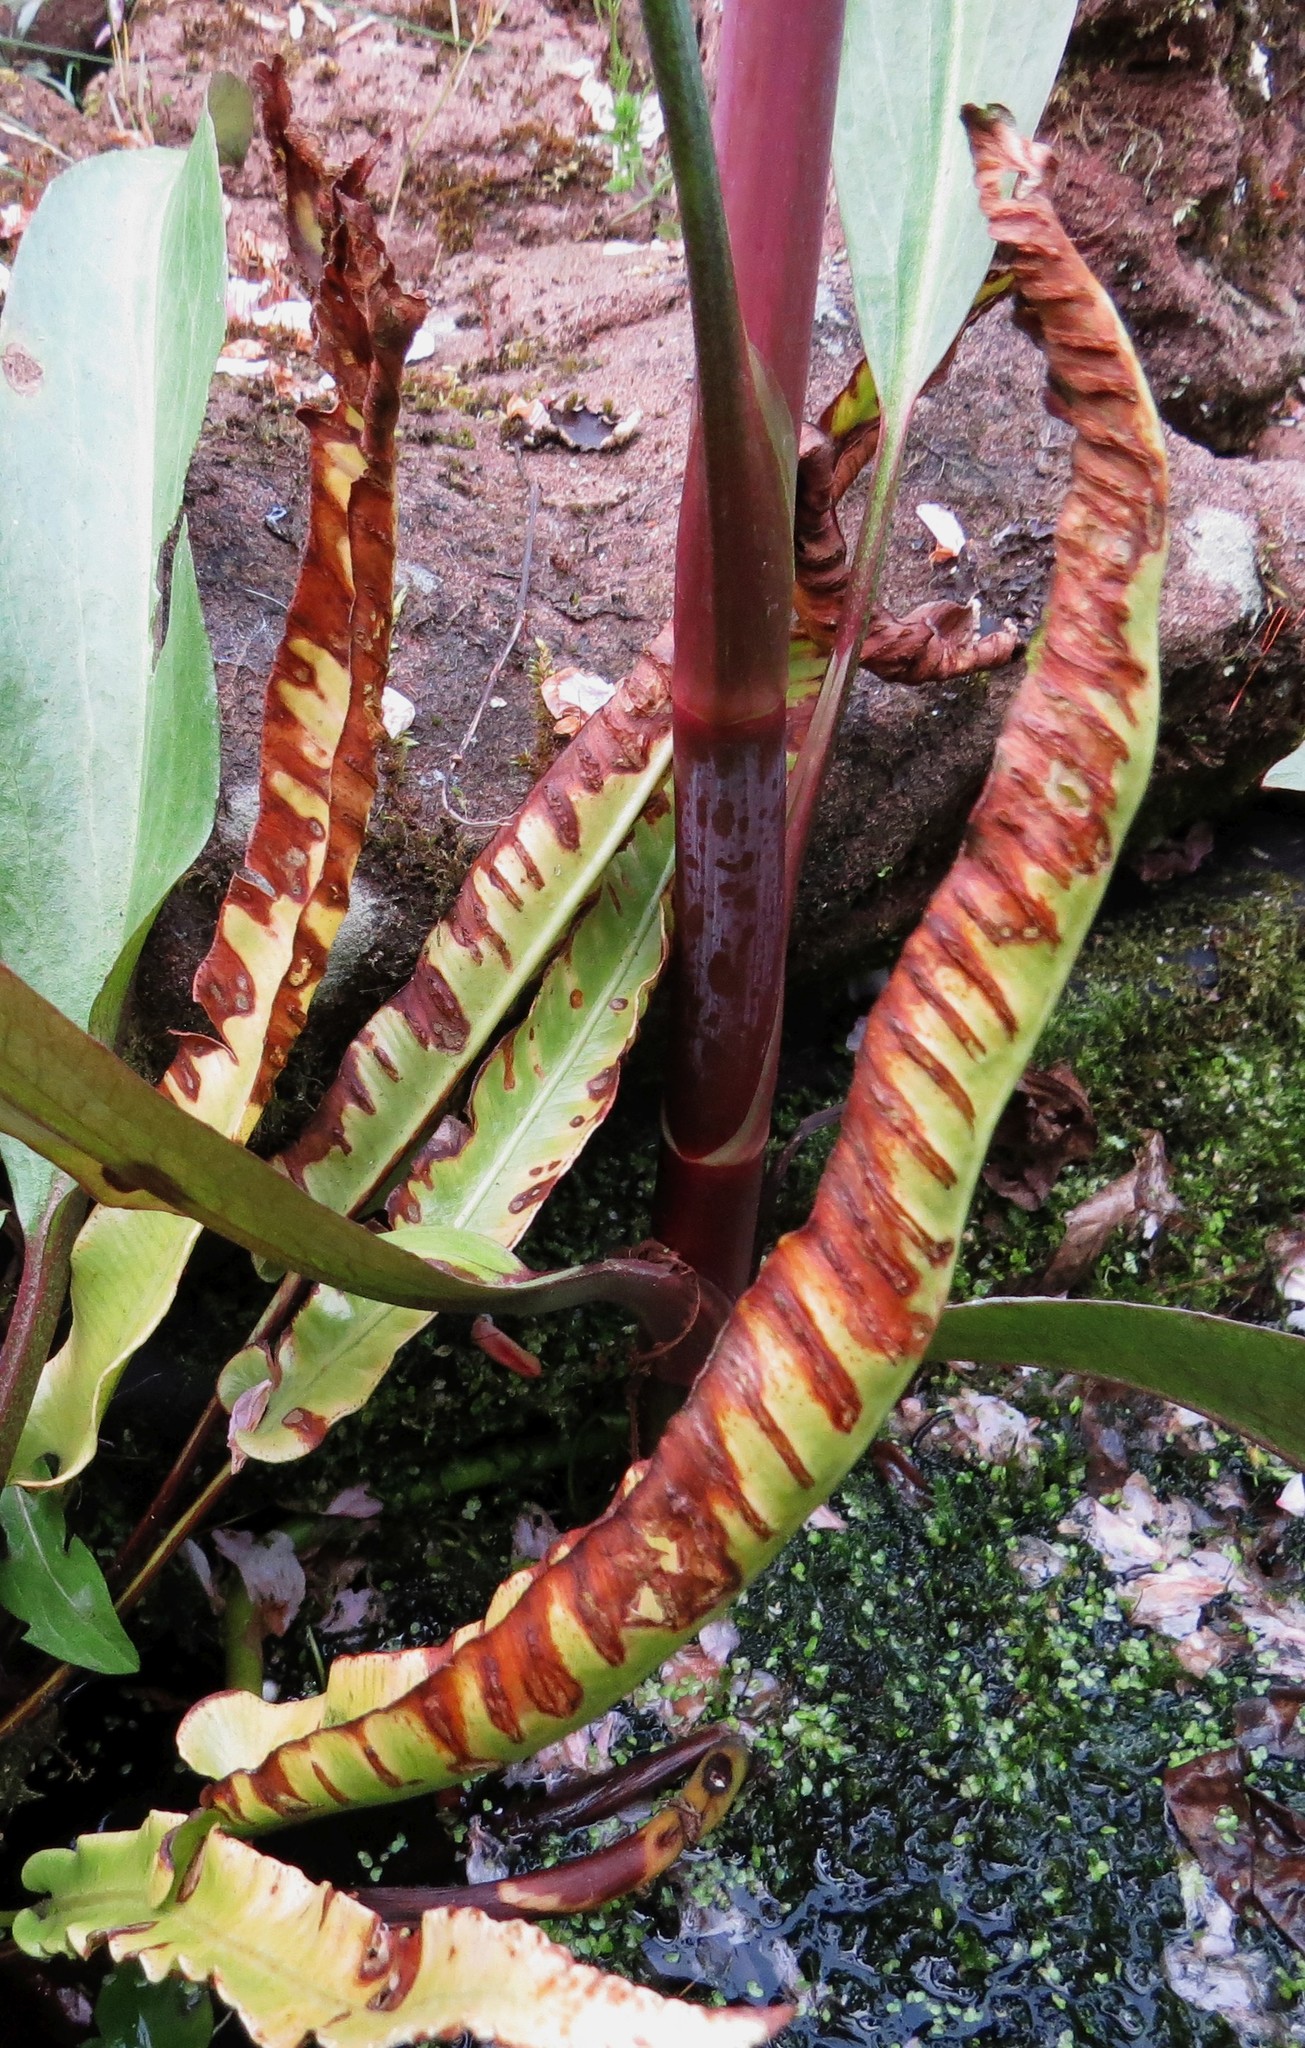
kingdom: Plantae
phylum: Tracheophyta
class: Polypodiopsida
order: Polypodiales
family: Aspleniaceae
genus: Asplenium
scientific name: Asplenium scolopendrium
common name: Hart's-tongue fern
